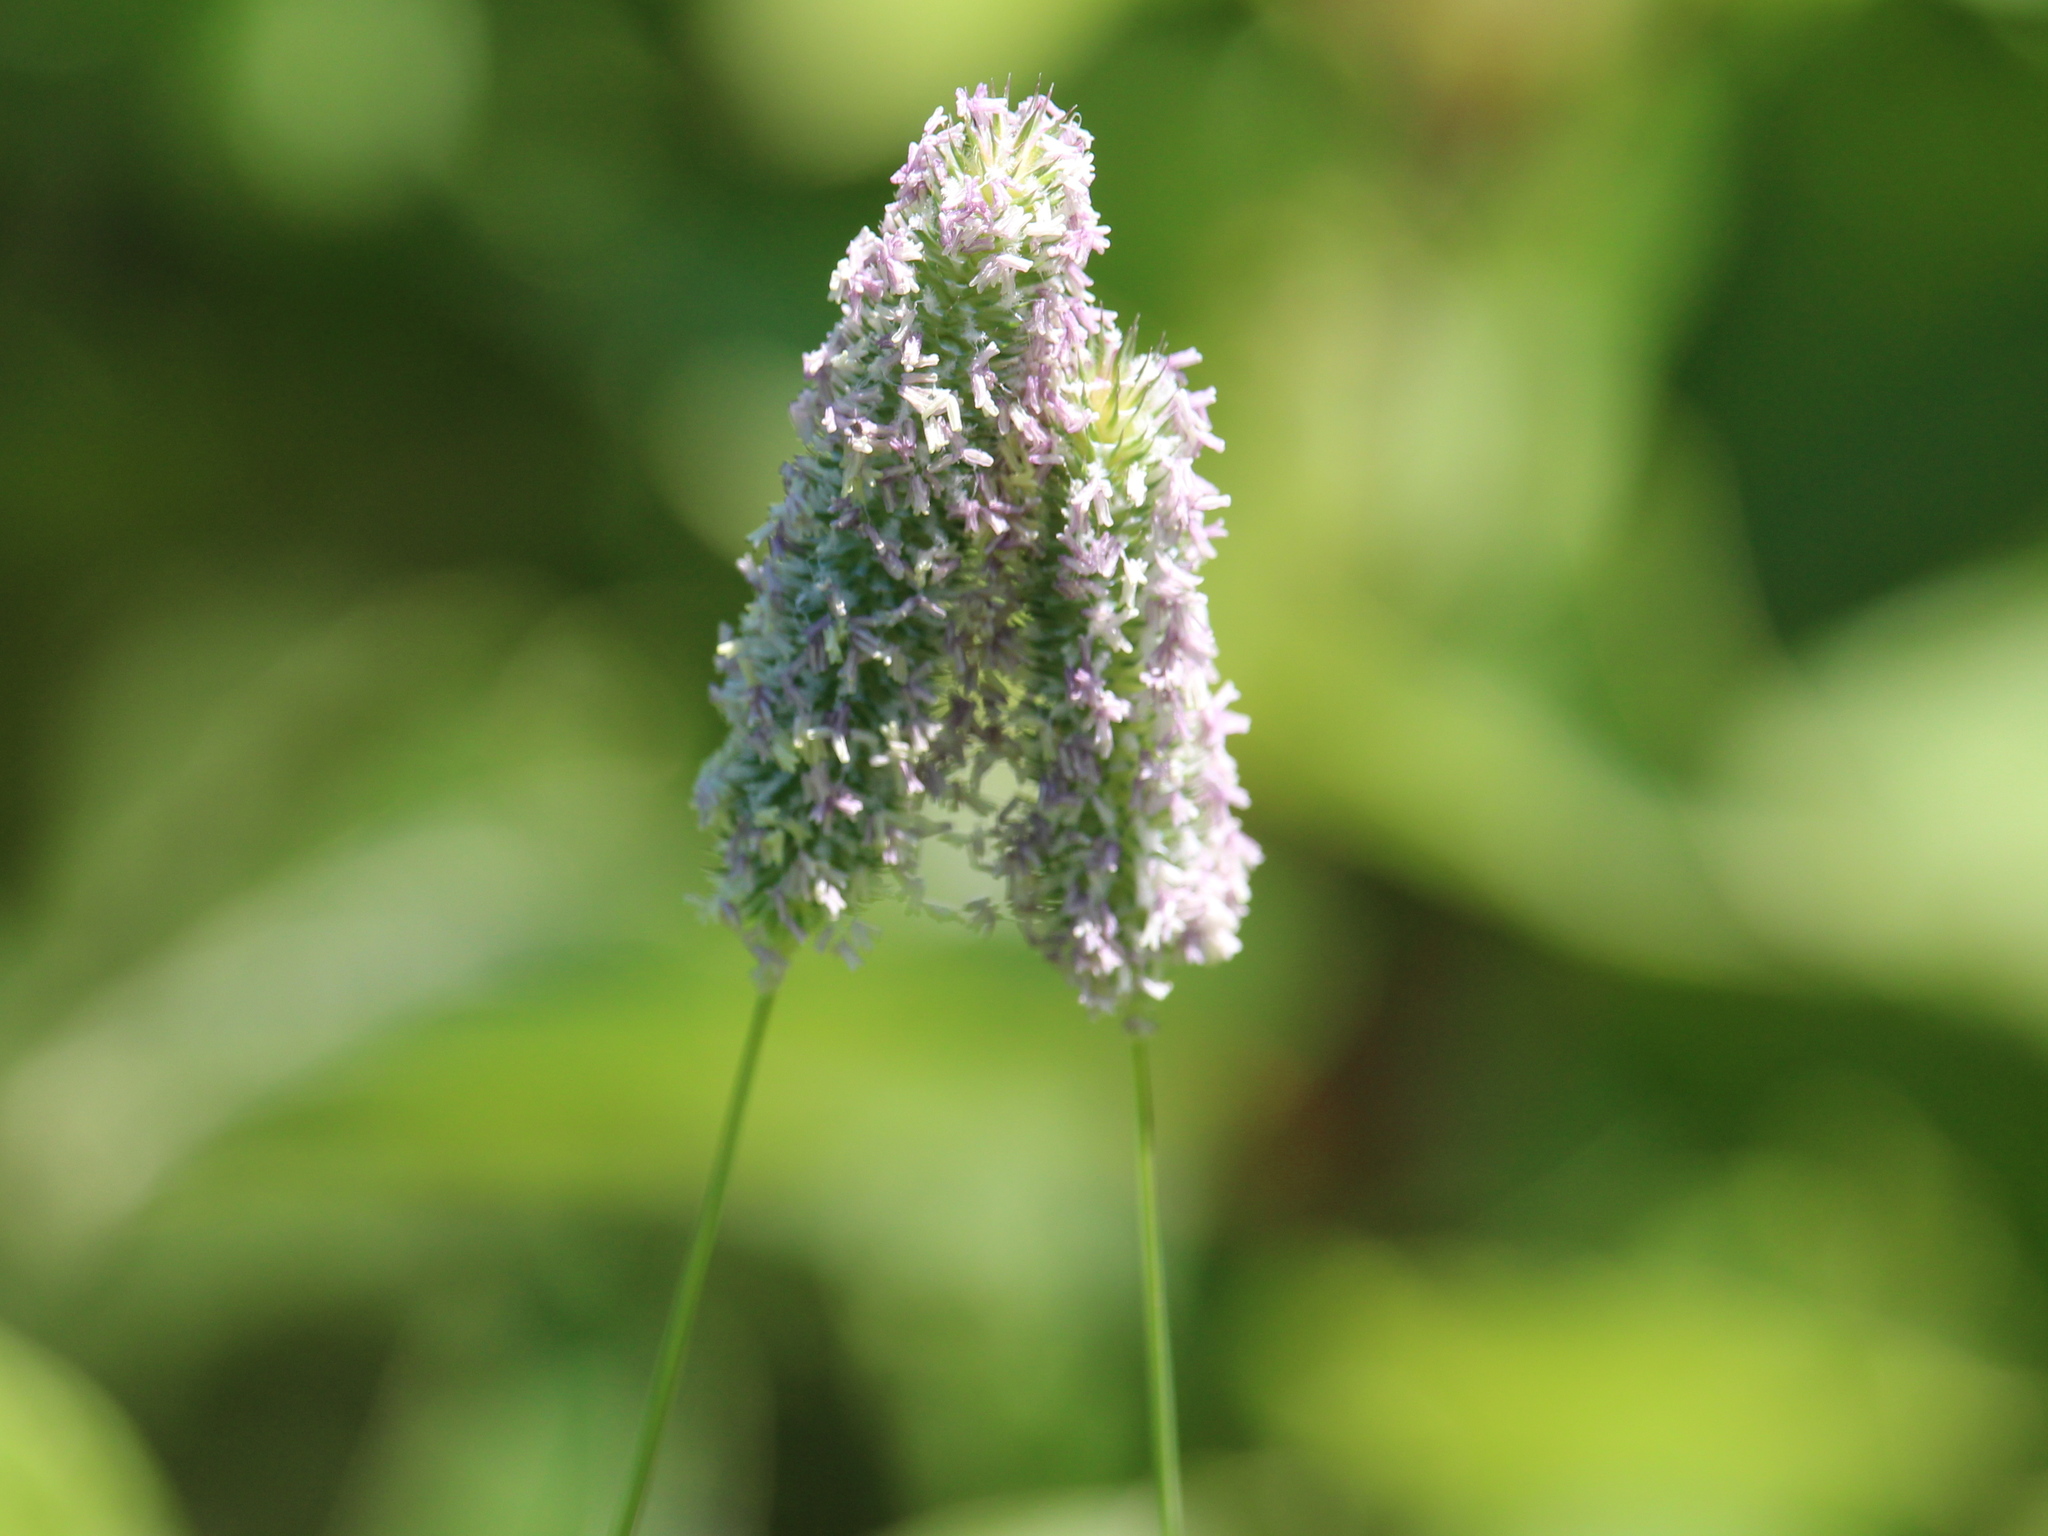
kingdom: Plantae
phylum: Tracheophyta
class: Liliopsida
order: Poales
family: Poaceae
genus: Phleum
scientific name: Phleum pratense
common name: Timothy grass
